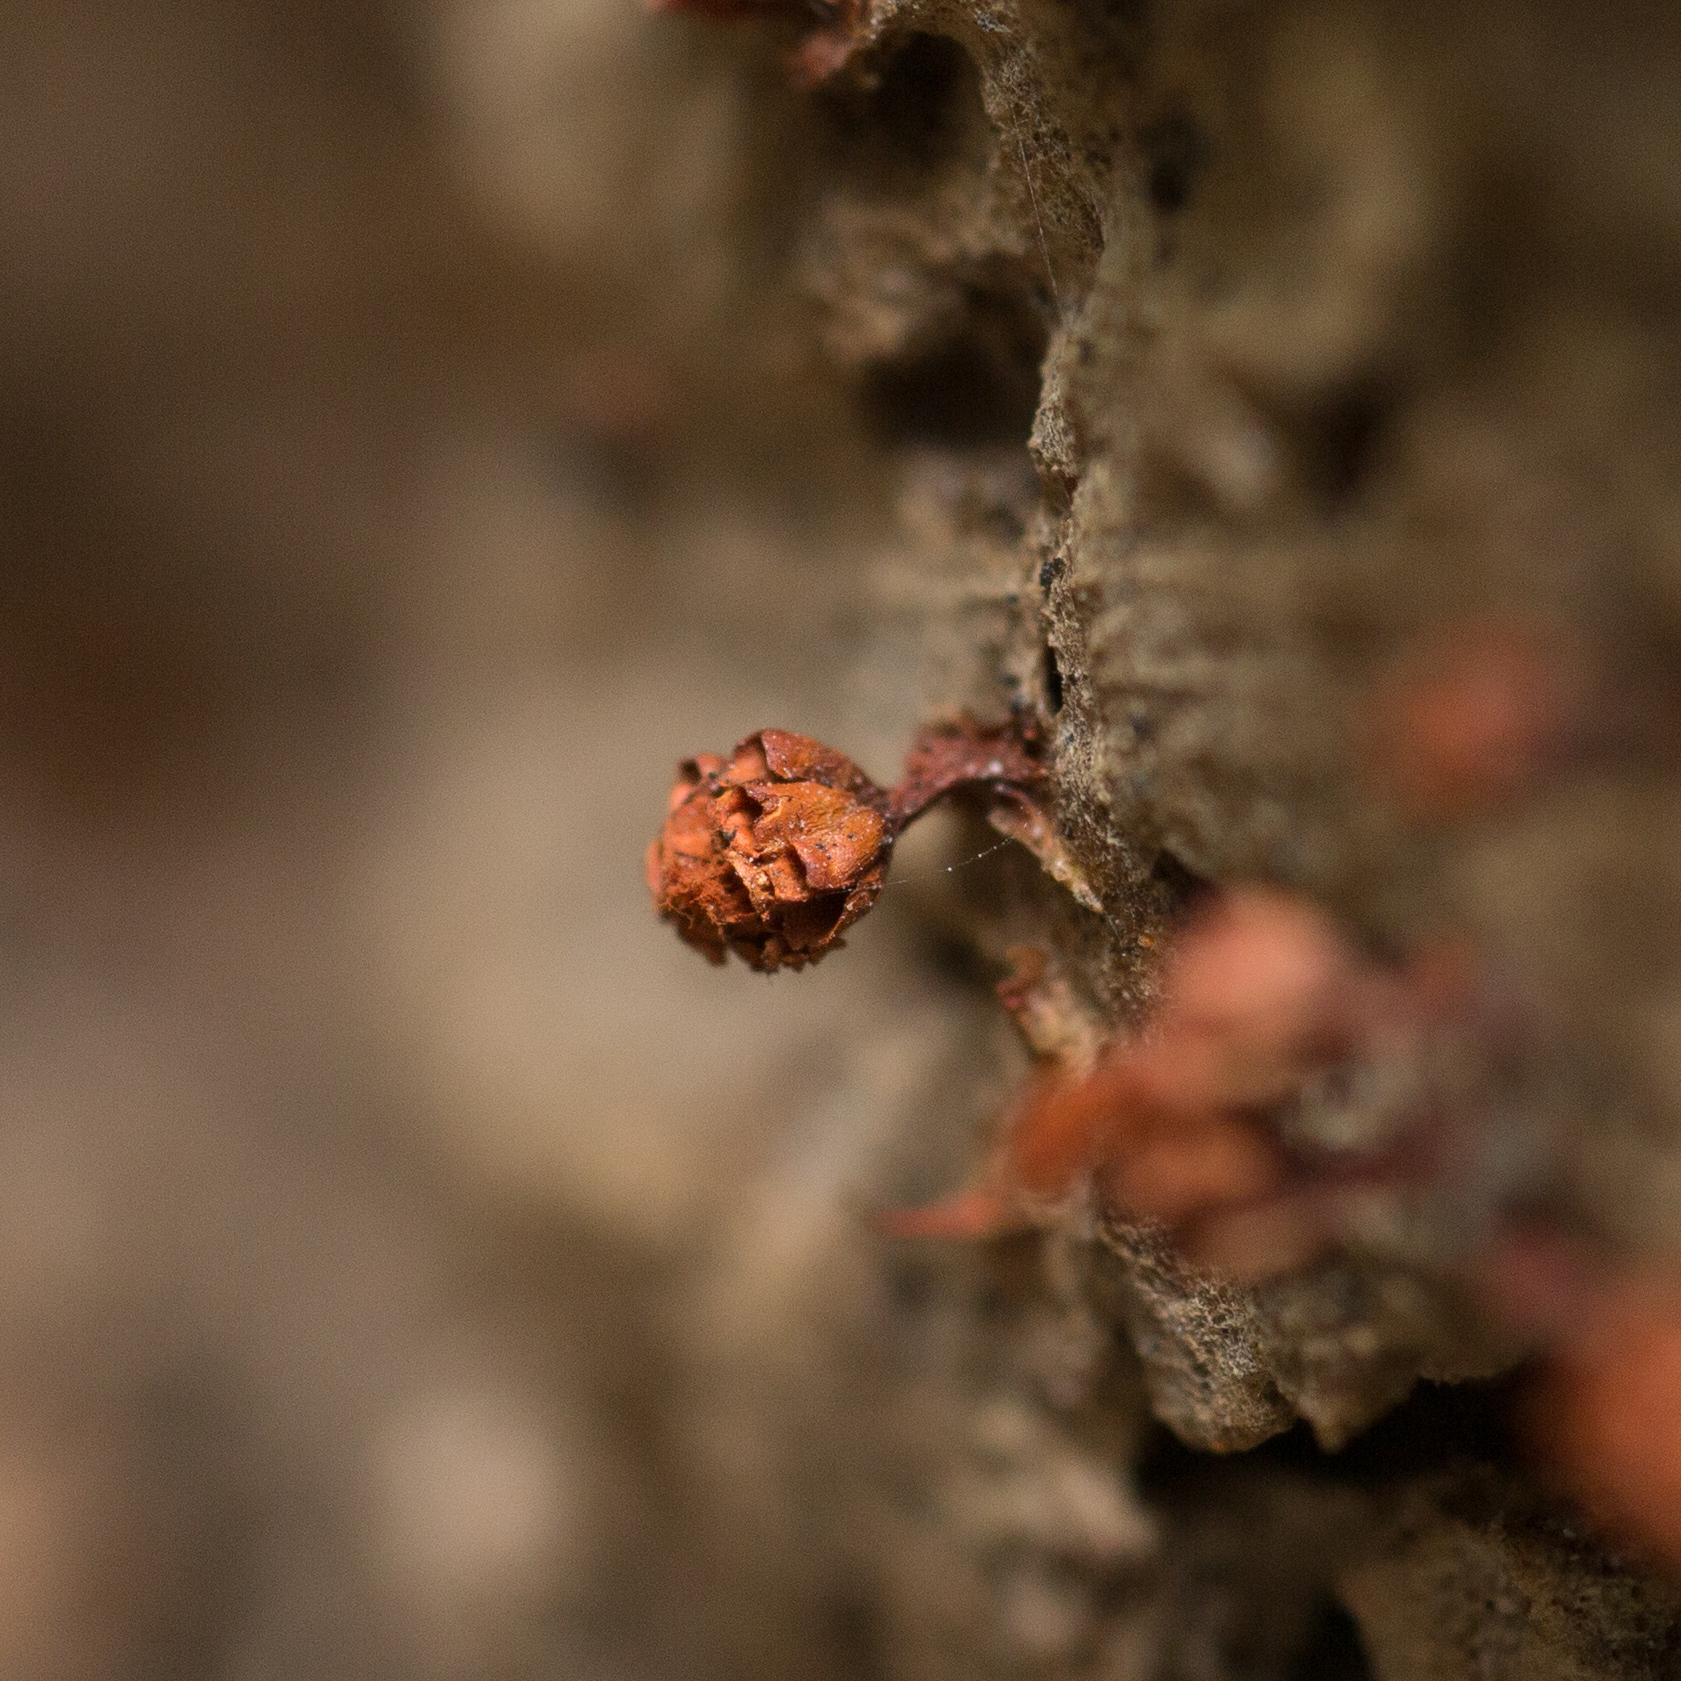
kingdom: Protozoa
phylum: Mycetozoa
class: Myxomycetes
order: Trichiales
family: Trichiaceae
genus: Metatrichia
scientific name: Metatrichia vesparia
